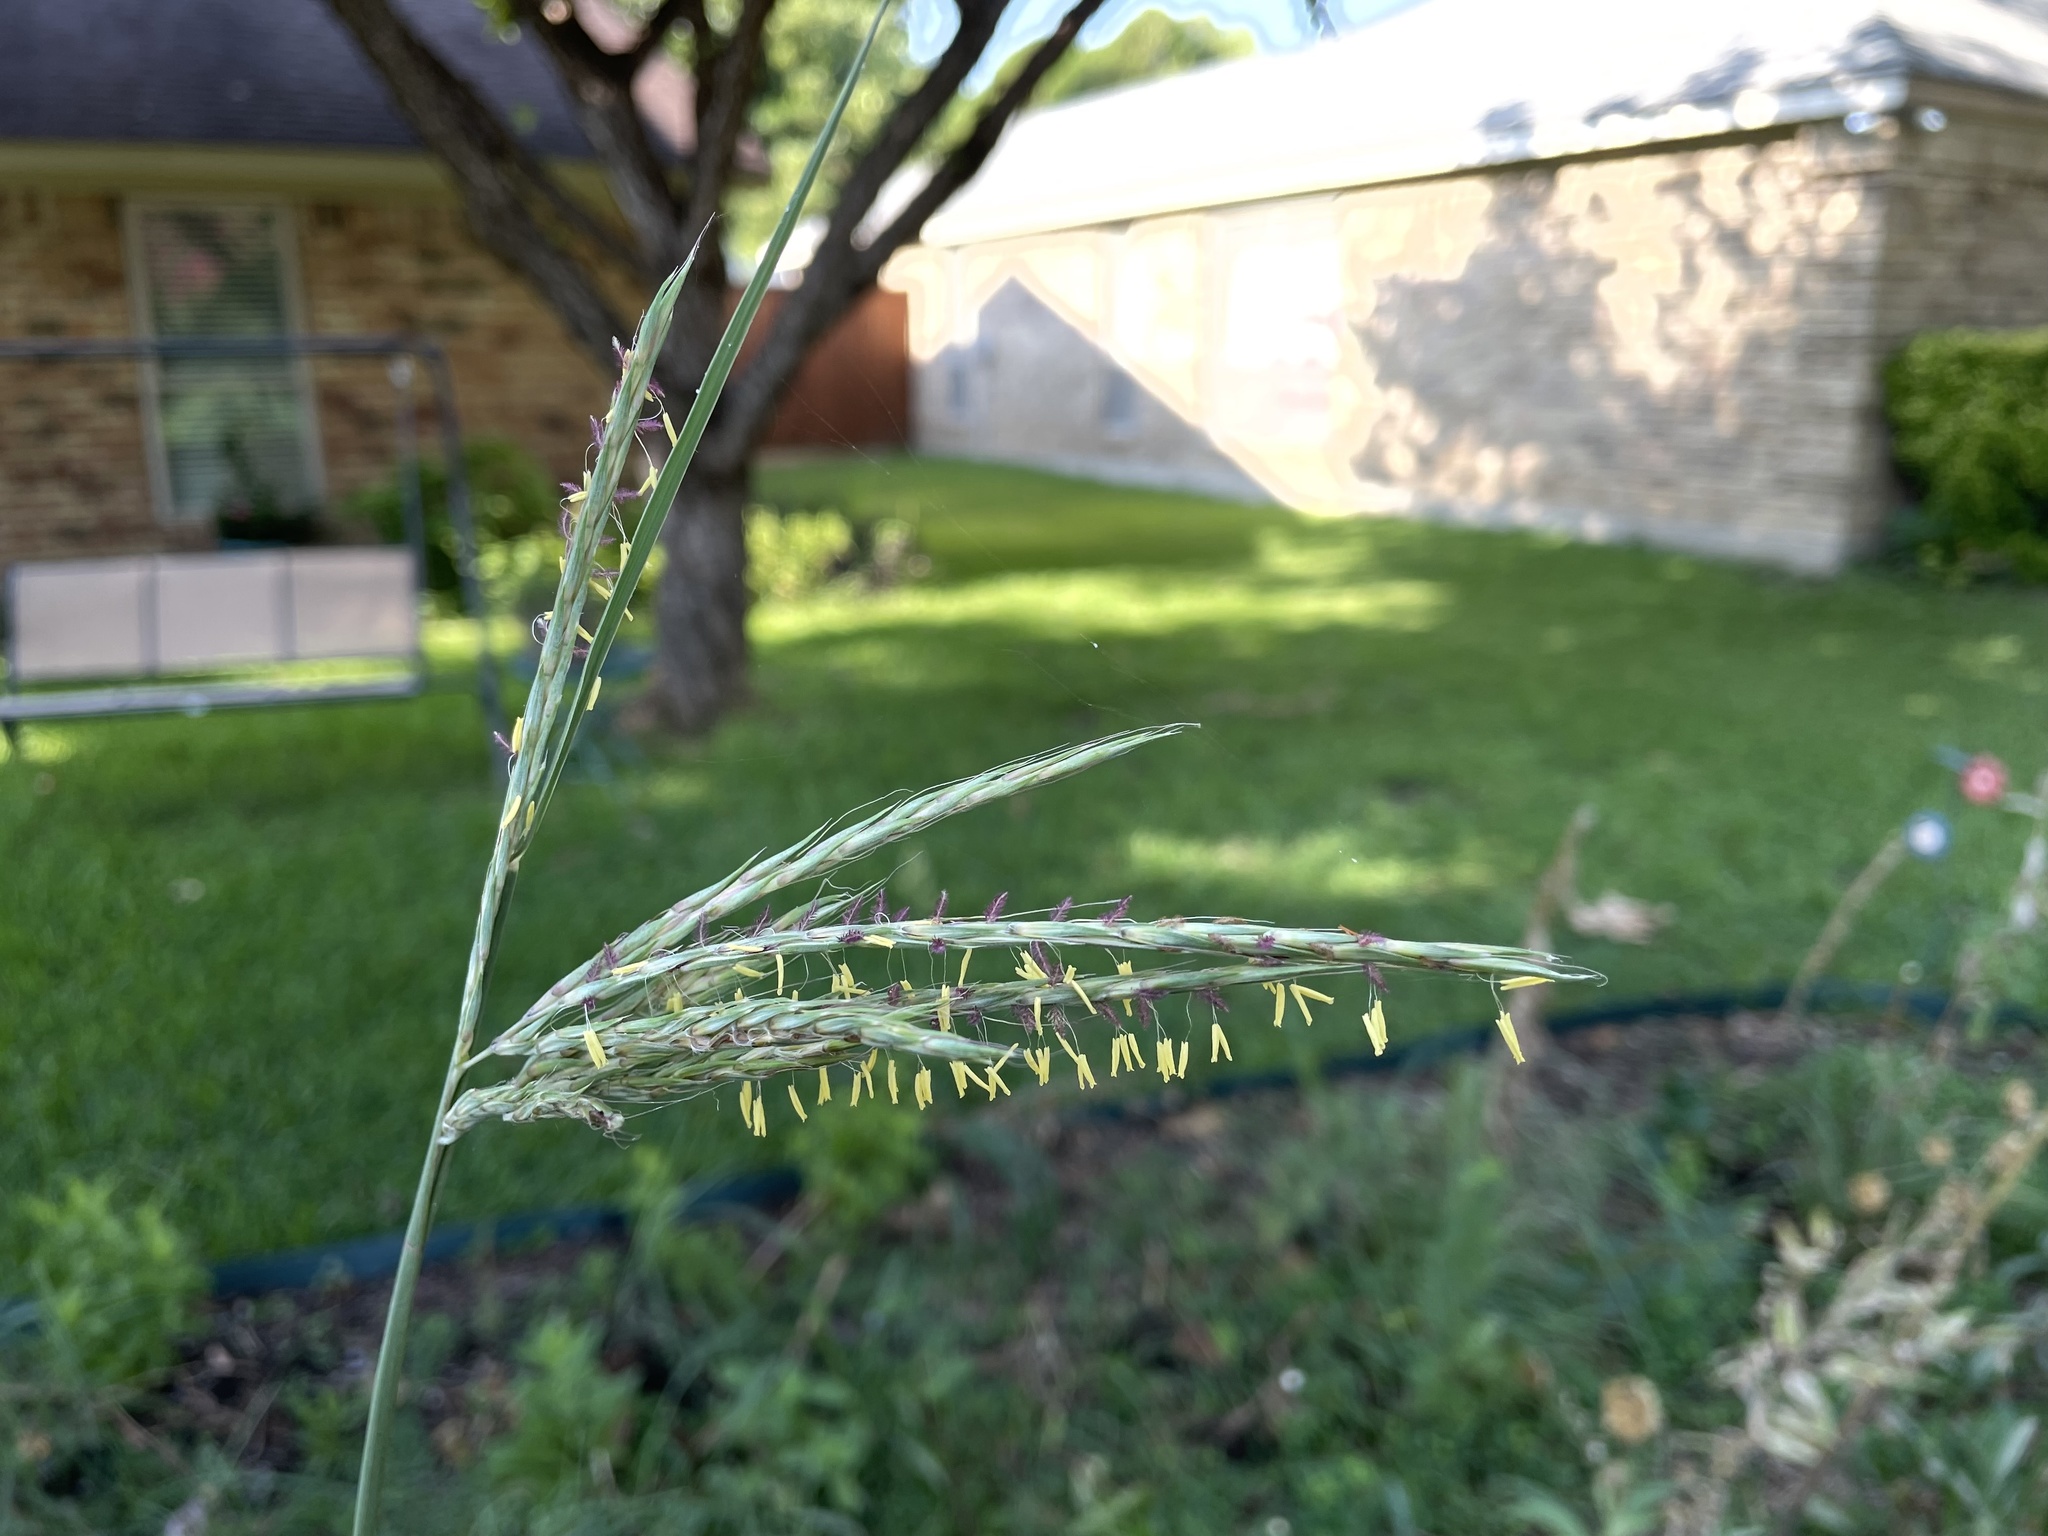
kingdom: Plantae
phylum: Tracheophyta
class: Liliopsida
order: Poales
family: Poaceae
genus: Andropogon
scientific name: Andropogon gerardi
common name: Big bluestem
